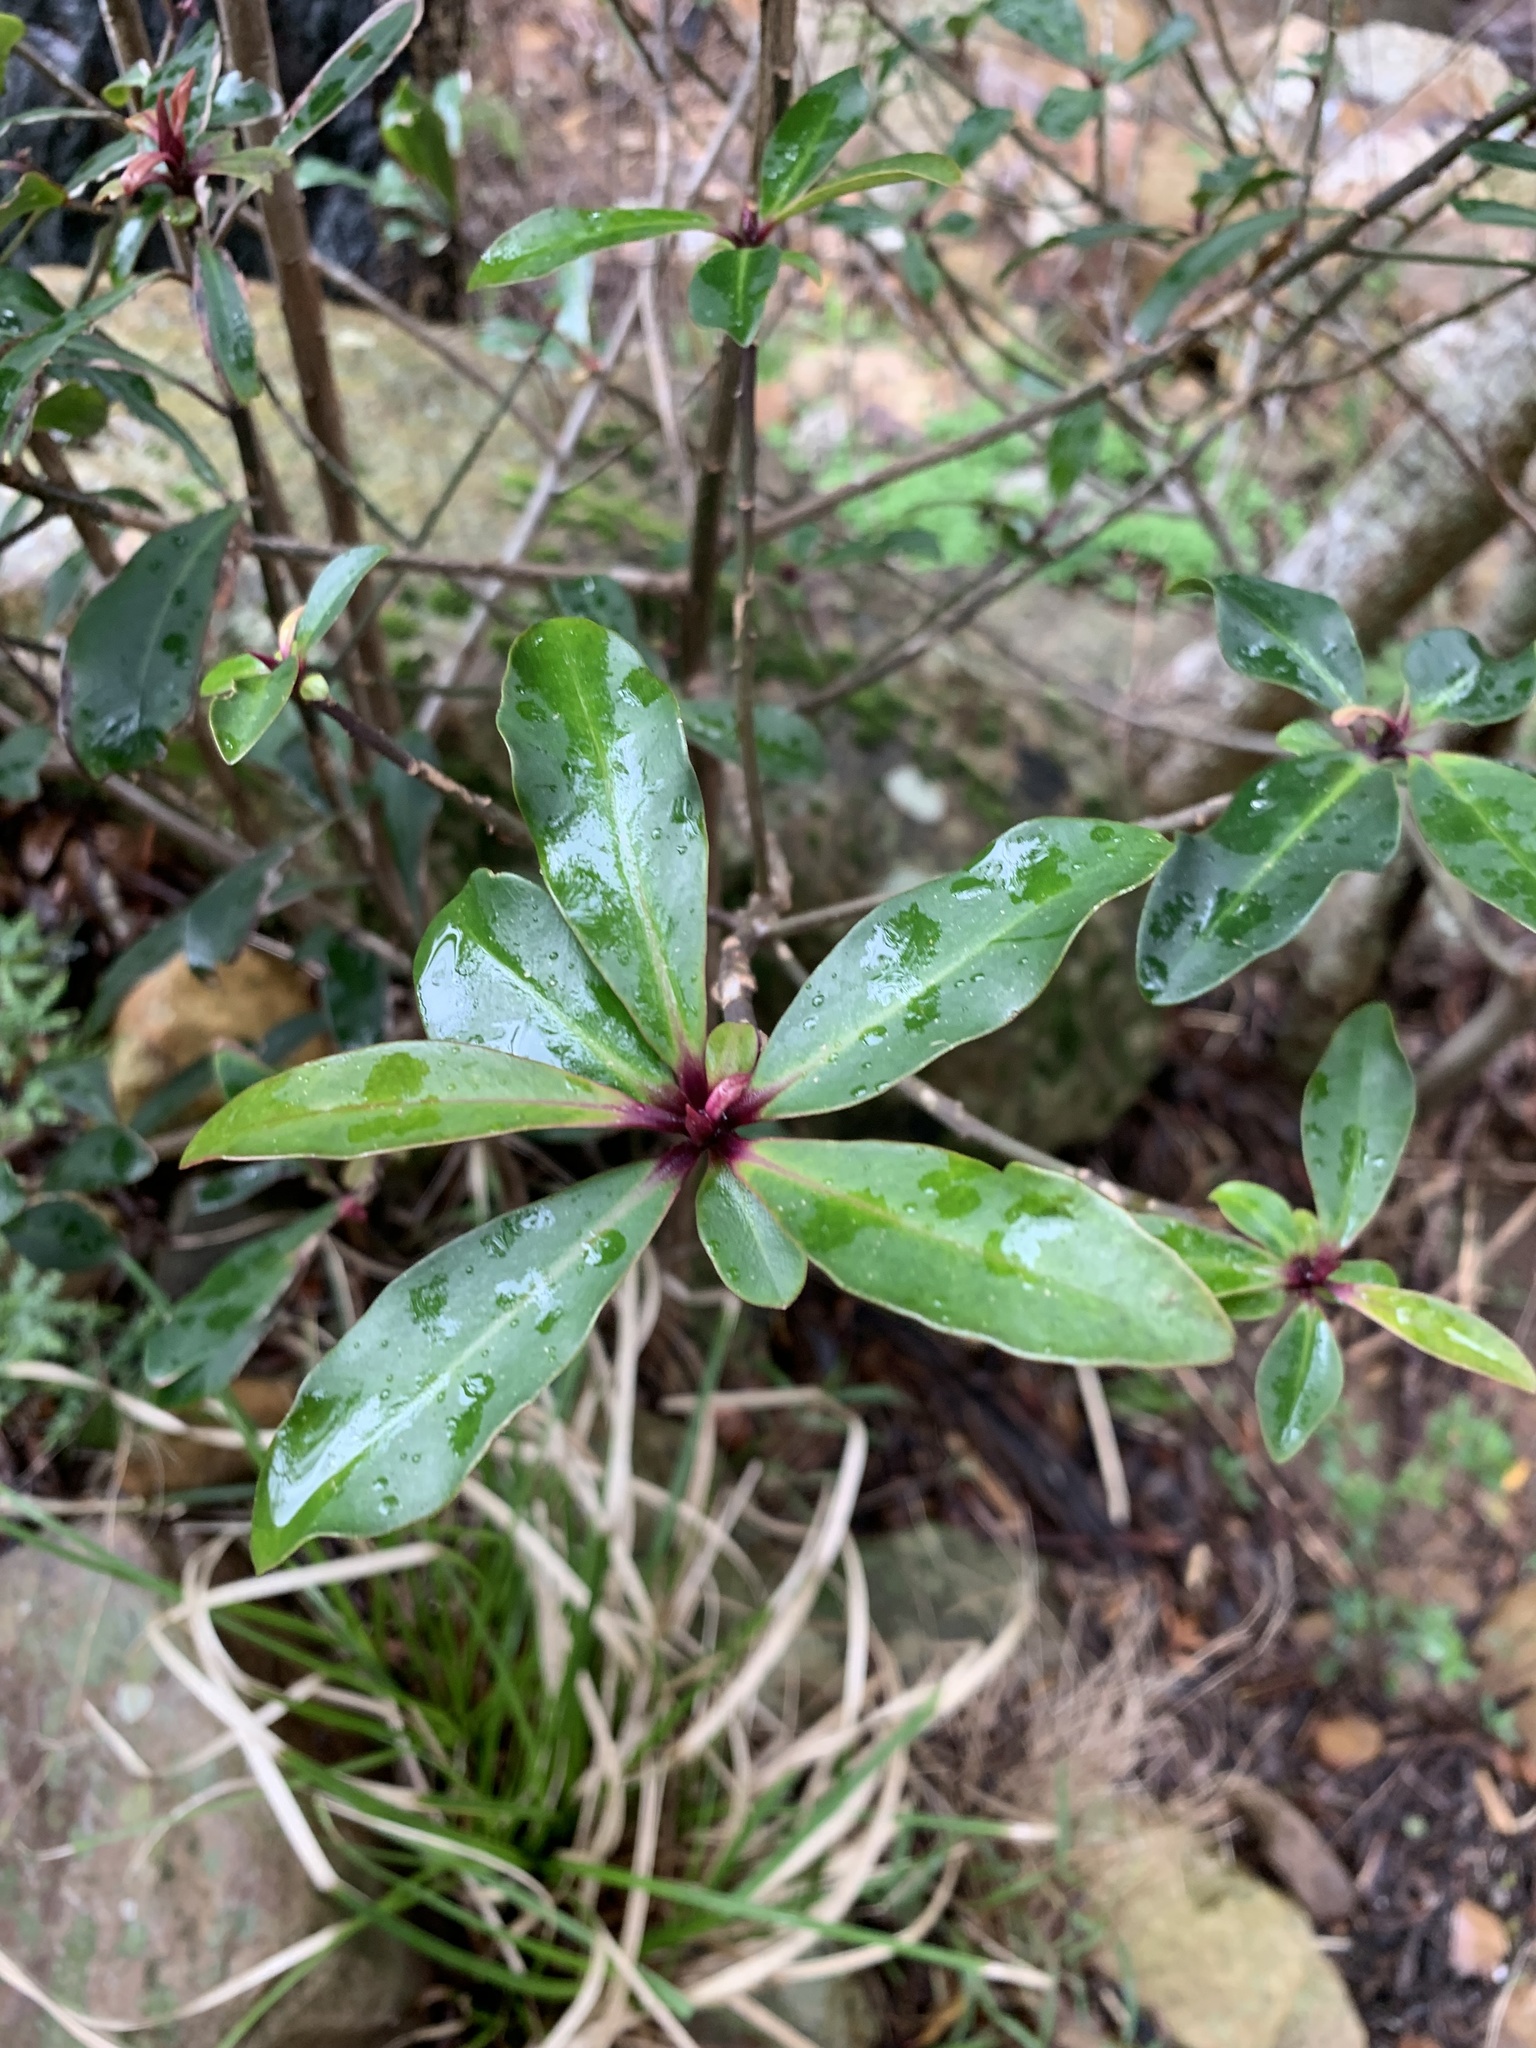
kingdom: Plantae
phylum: Tracheophyta
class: Magnoliopsida
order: Ericales
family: Primulaceae
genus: Myrsine
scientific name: Myrsine melanophloeos
